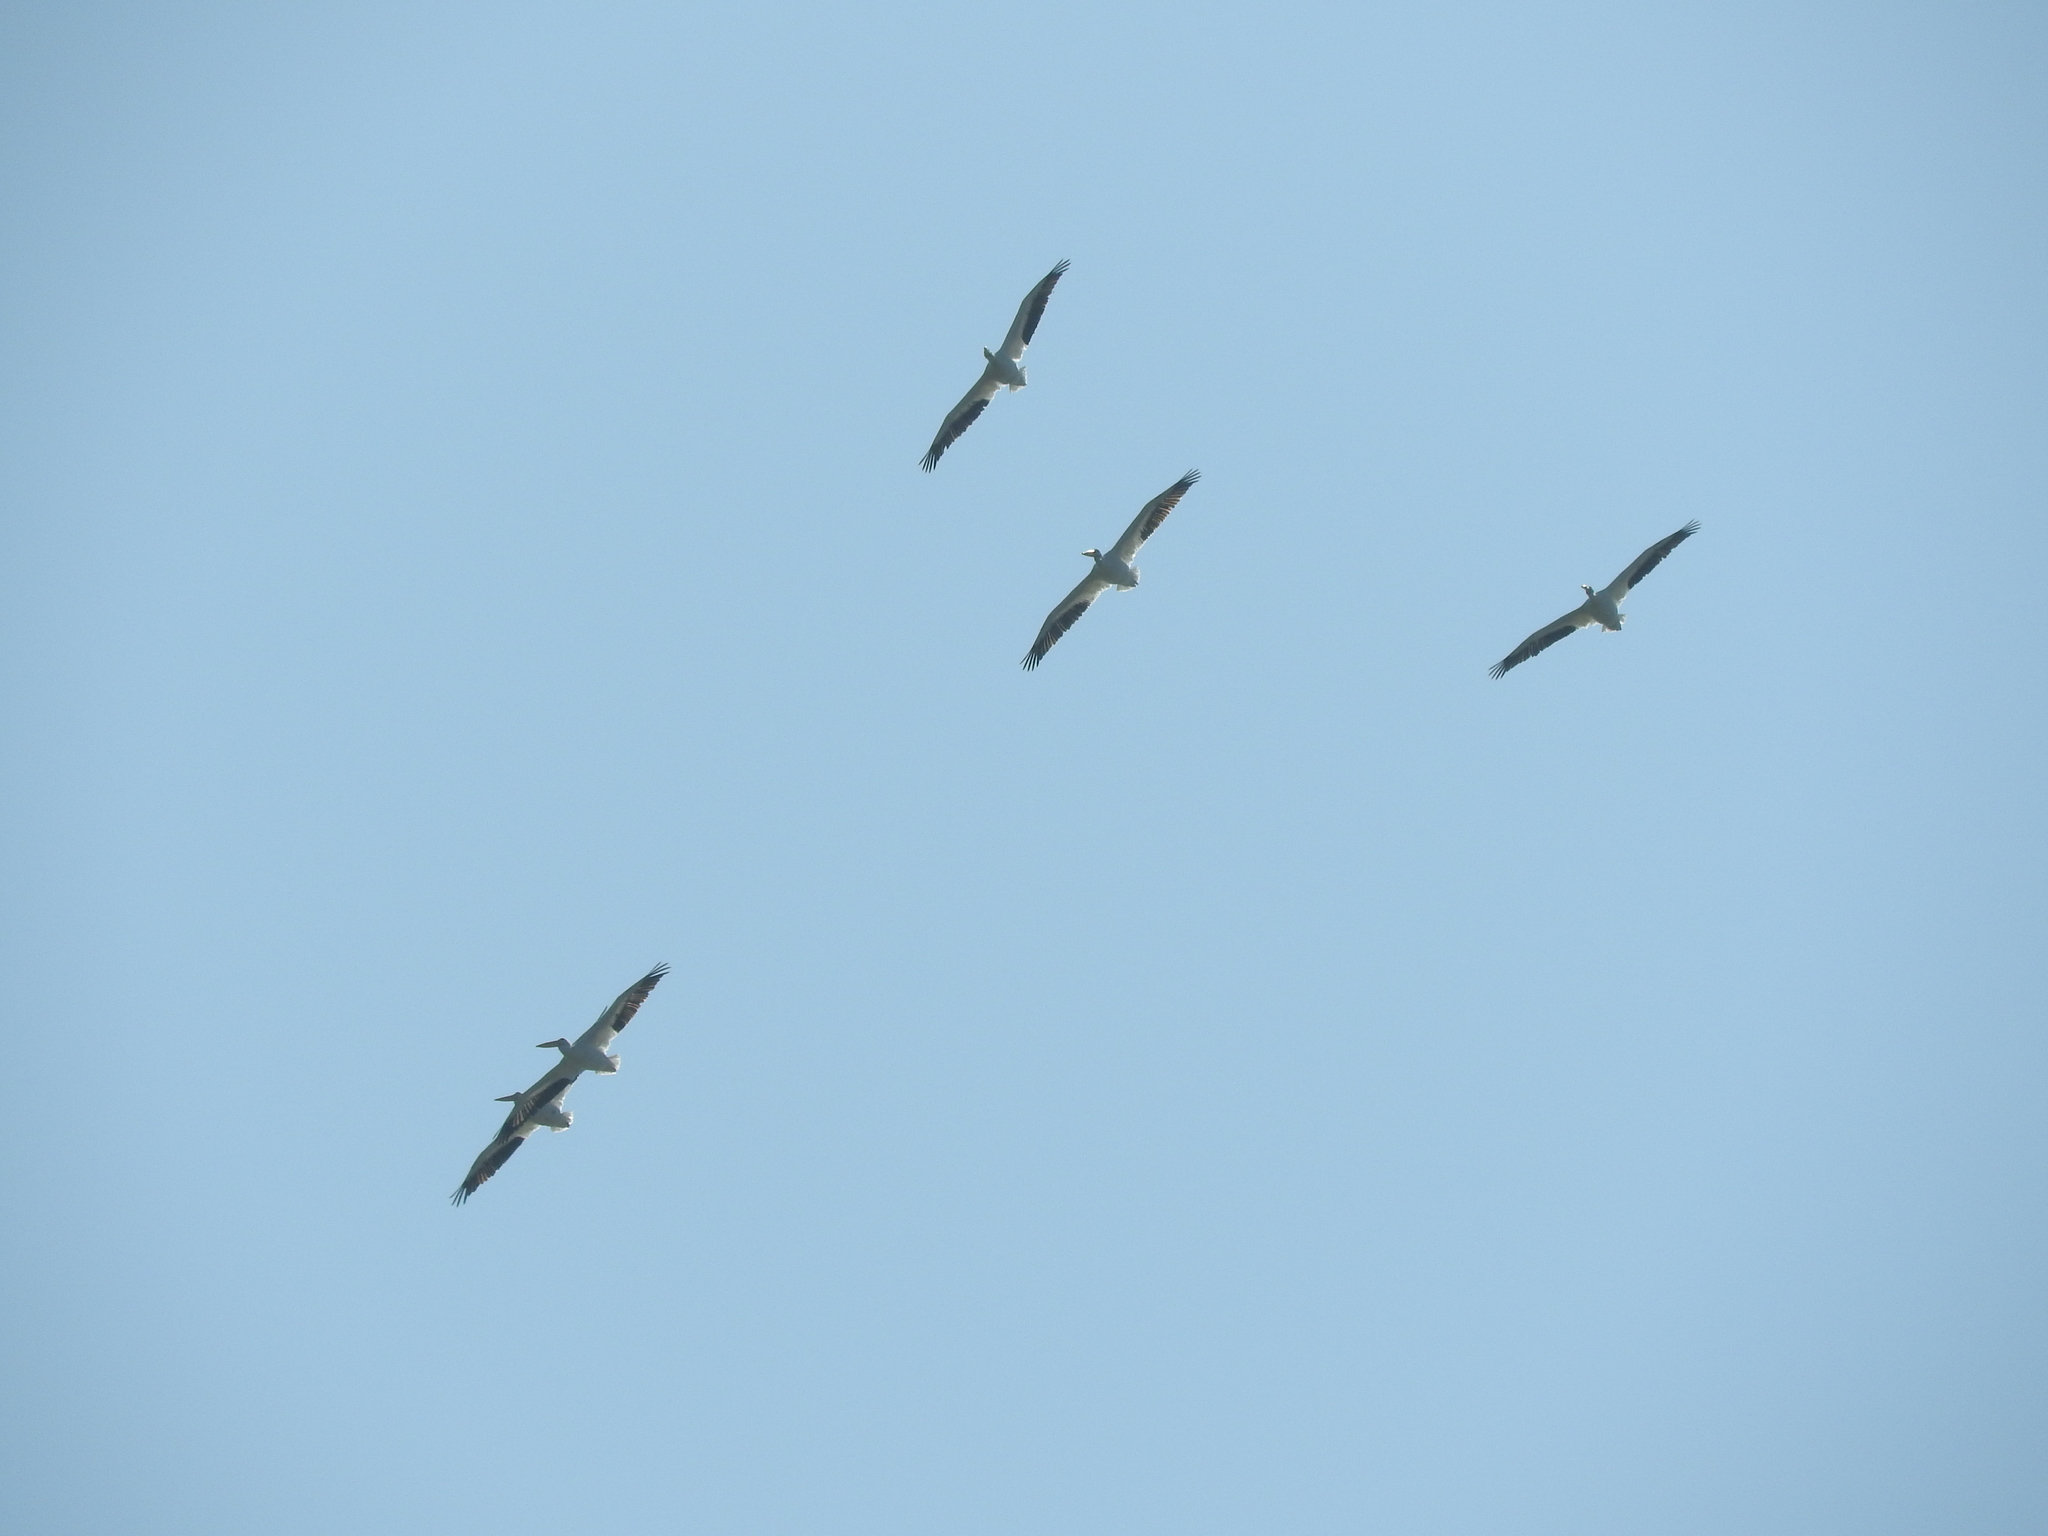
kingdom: Animalia
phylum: Chordata
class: Aves
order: Pelecaniformes
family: Pelecanidae
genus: Pelecanus
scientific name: Pelecanus erythrorhynchos
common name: American white pelican
